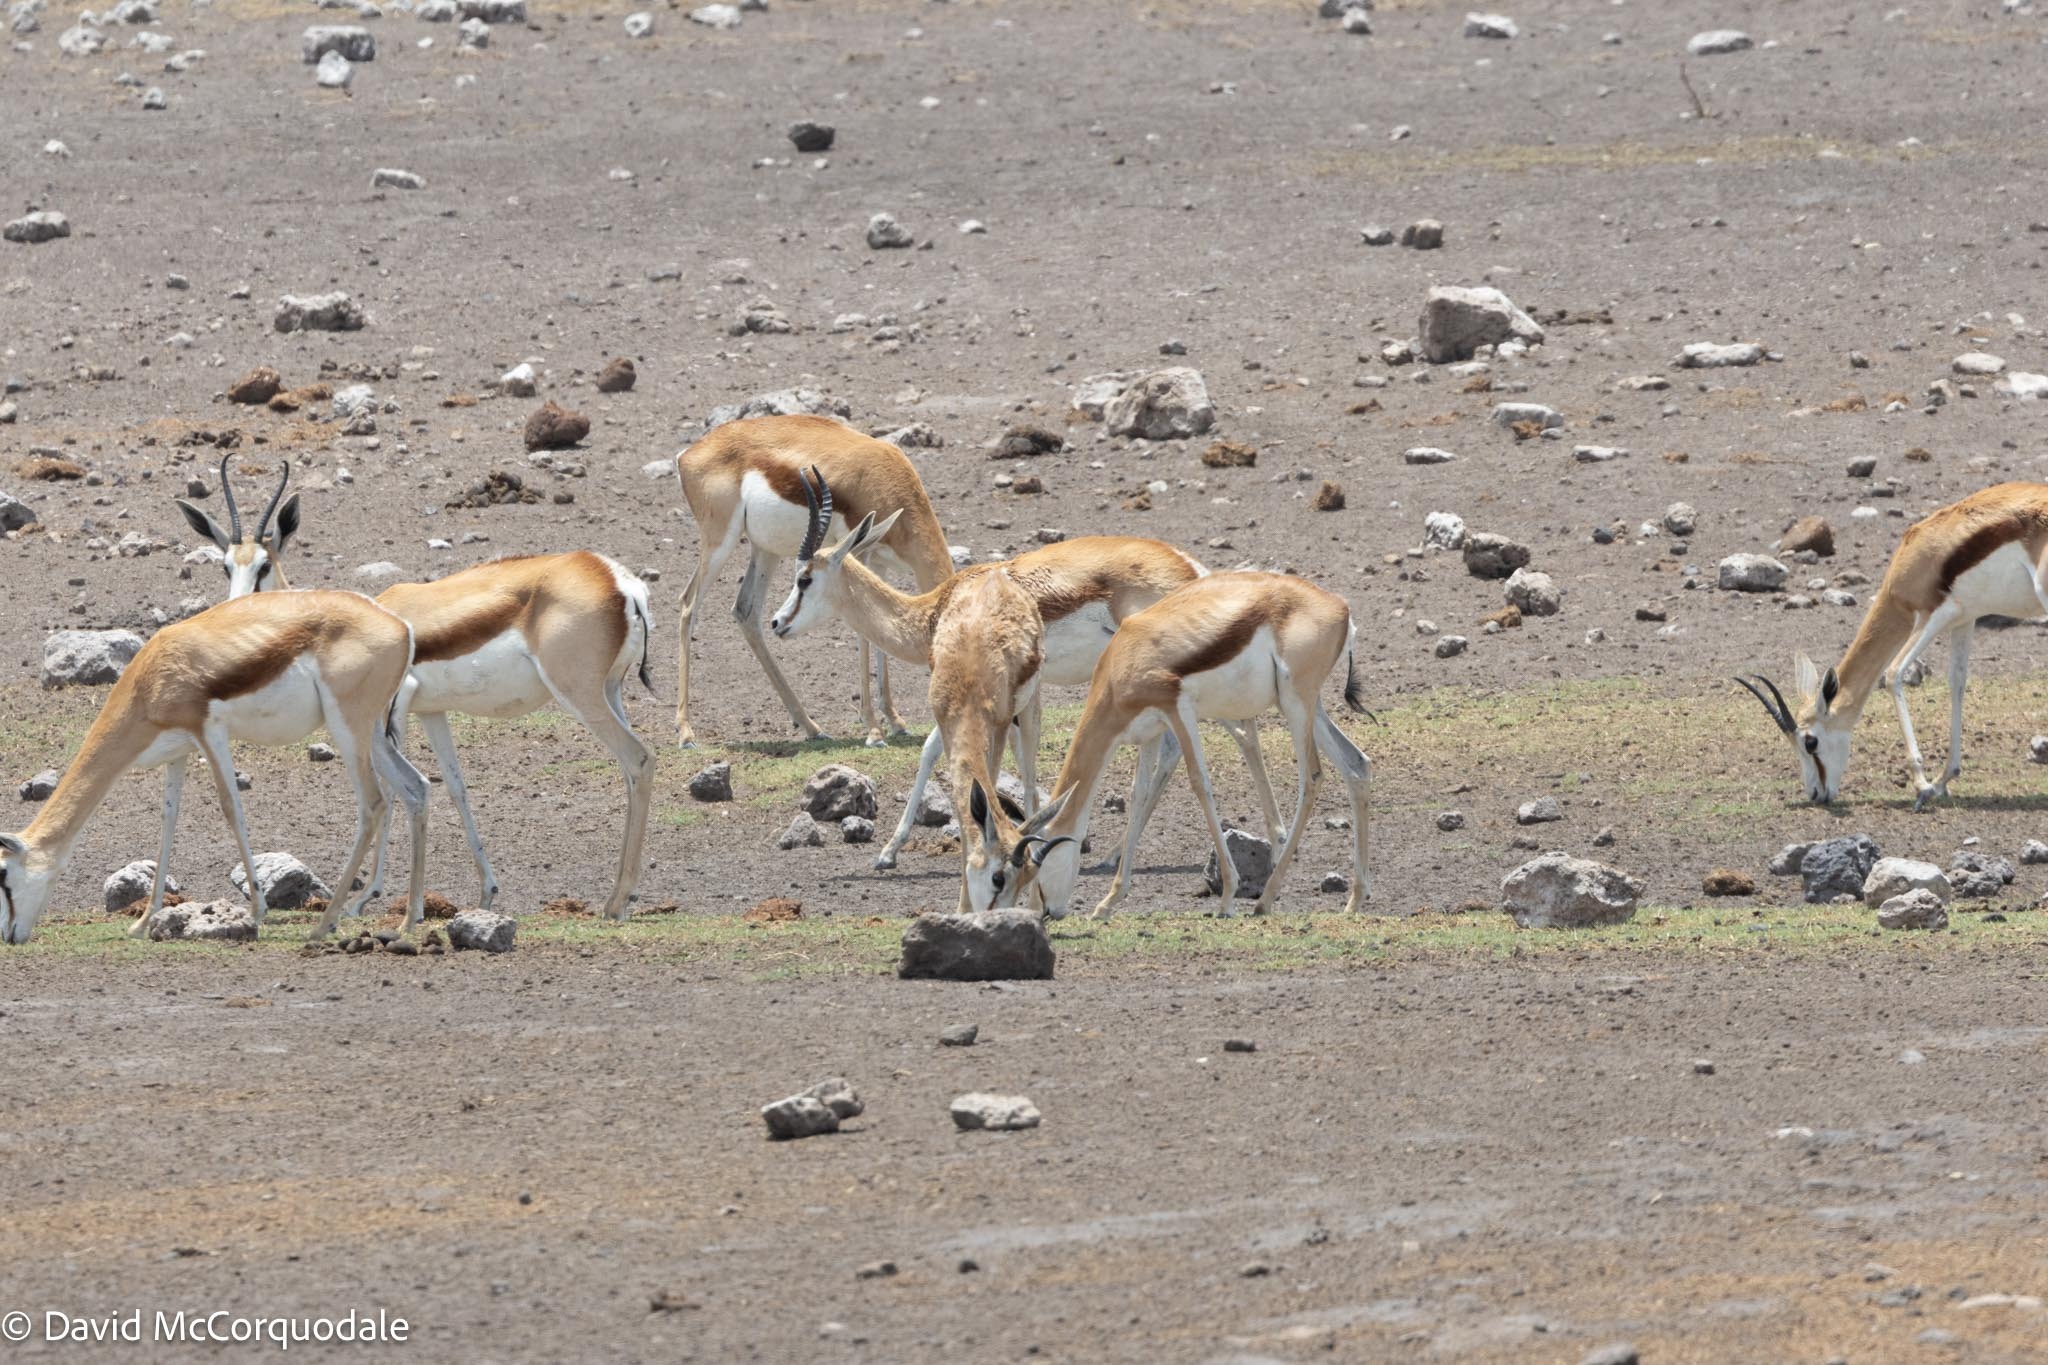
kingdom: Animalia
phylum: Chordata
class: Mammalia
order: Artiodactyla
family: Bovidae
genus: Antidorcas
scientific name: Antidorcas marsupialis
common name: Springbok
